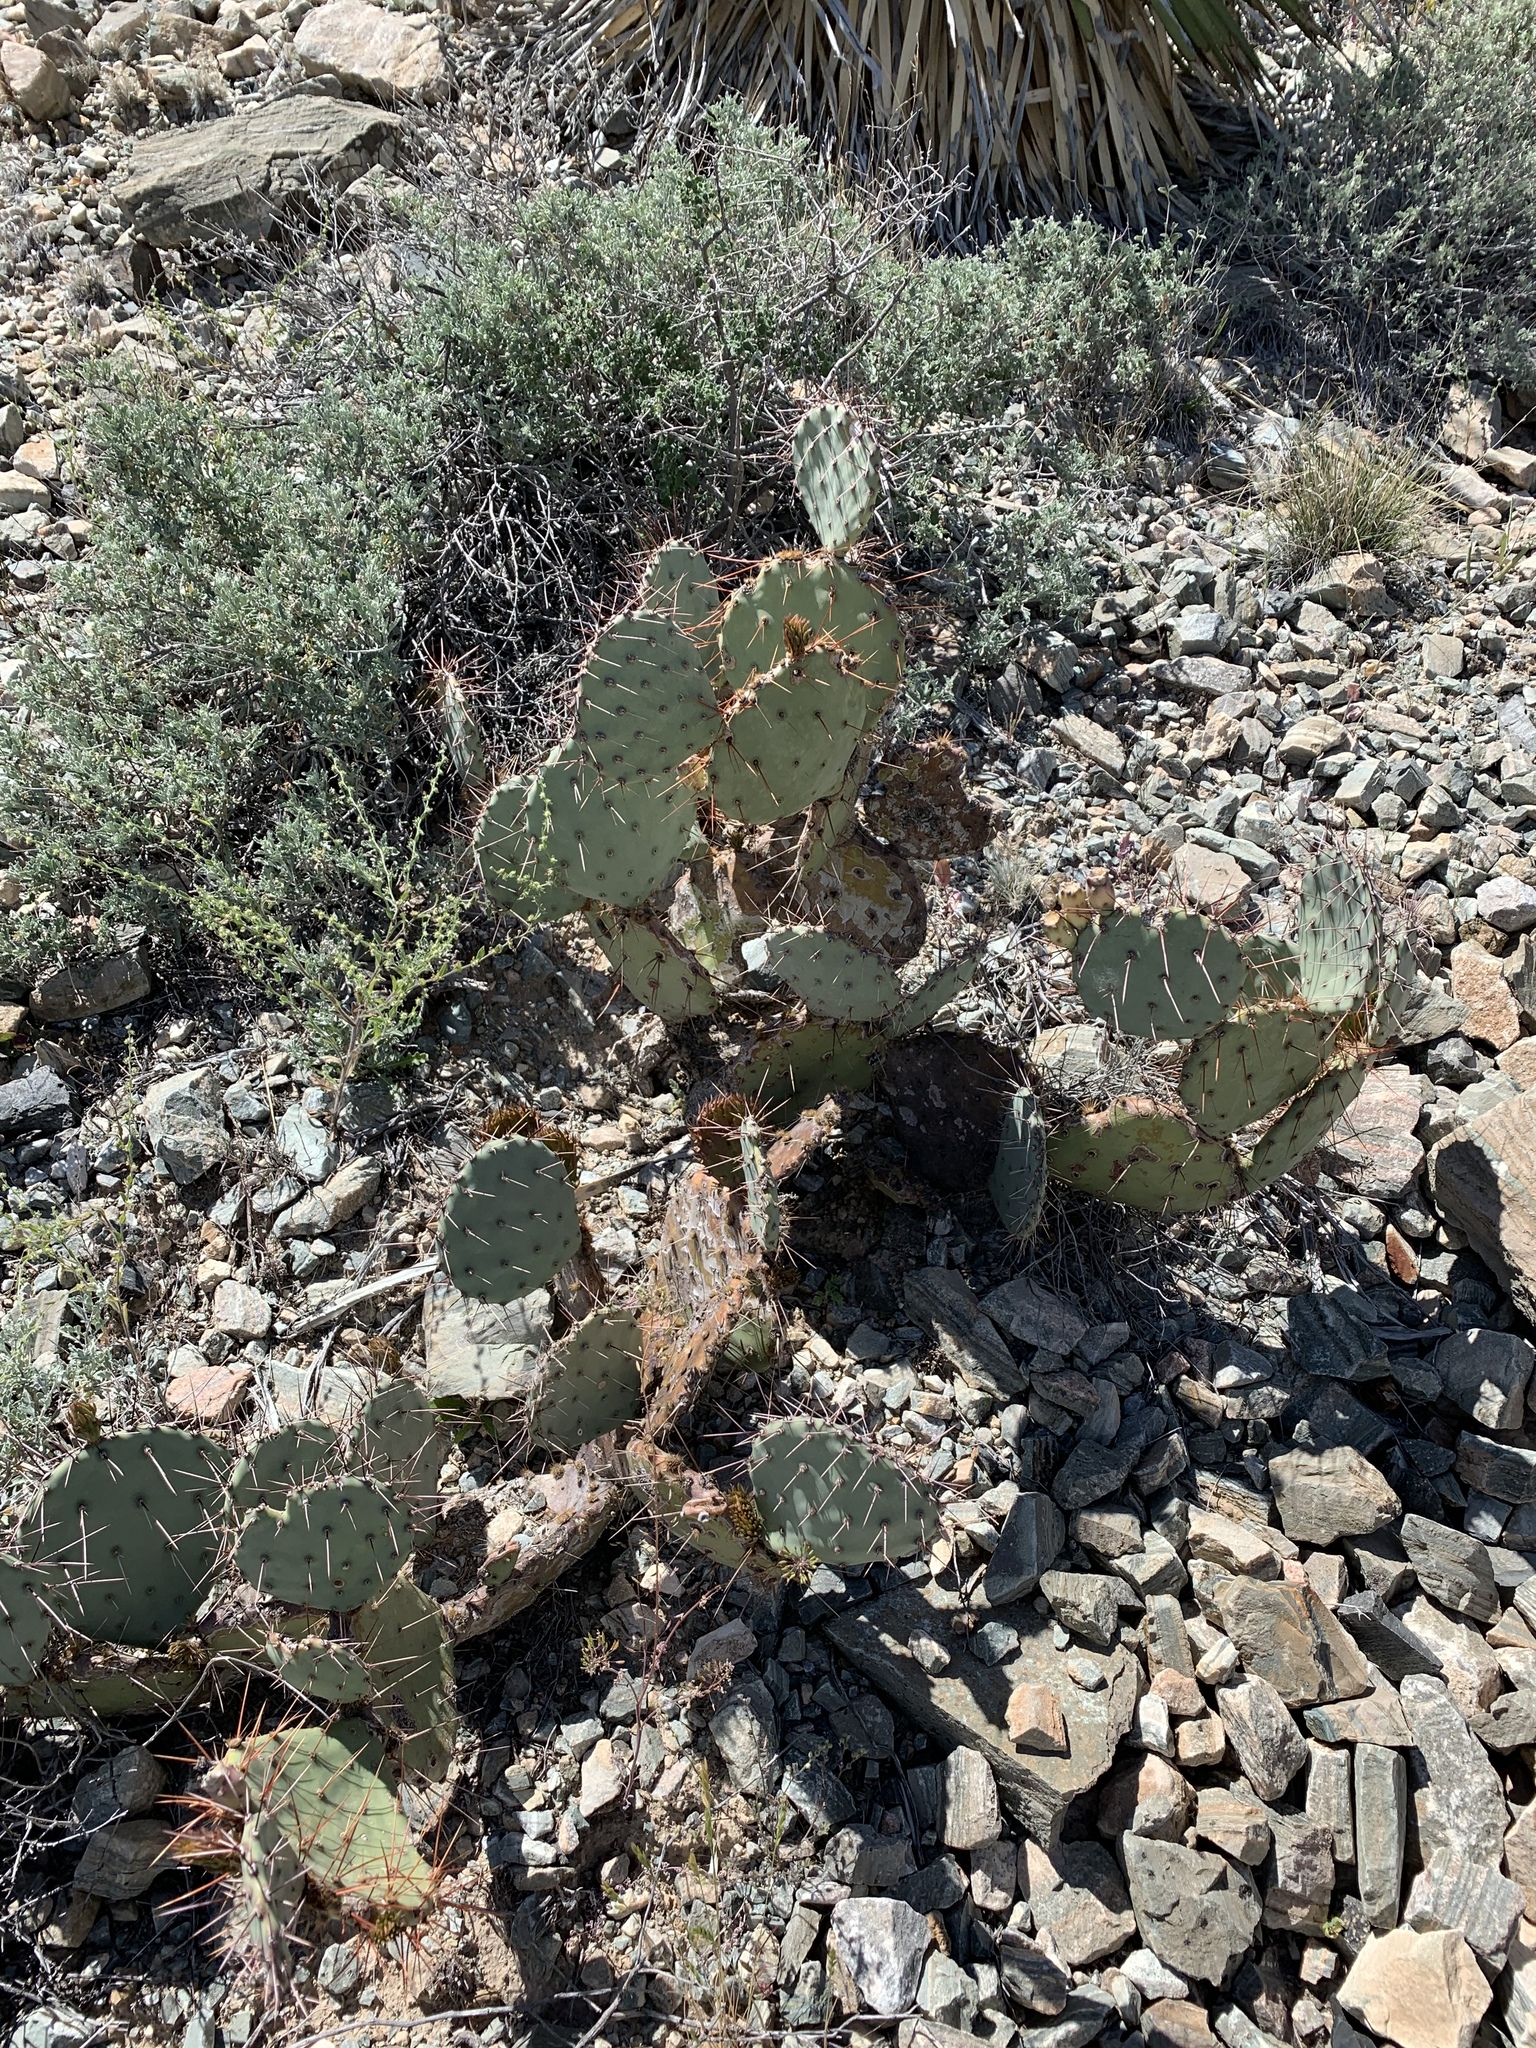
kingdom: Plantae
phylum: Tracheophyta
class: Magnoliopsida
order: Caryophyllales
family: Cactaceae
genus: Opuntia
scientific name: Opuntia phaeacantha
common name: New mexico prickly-pear
